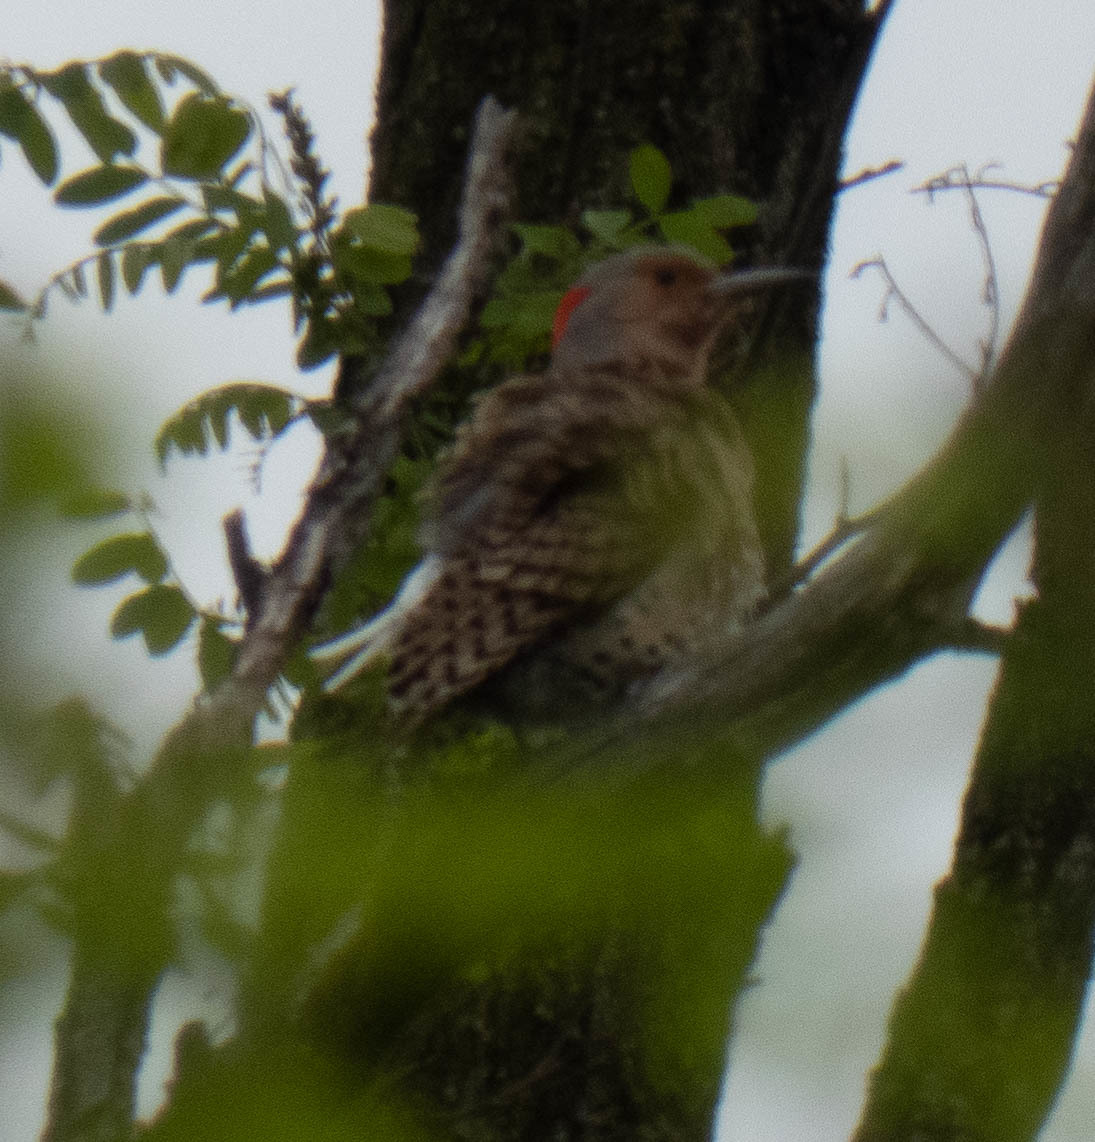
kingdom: Animalia
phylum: Chordata
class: Aves
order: Piciformes
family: Picidae
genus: Colaptes
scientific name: Colaptes auratus
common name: Northern flicker
